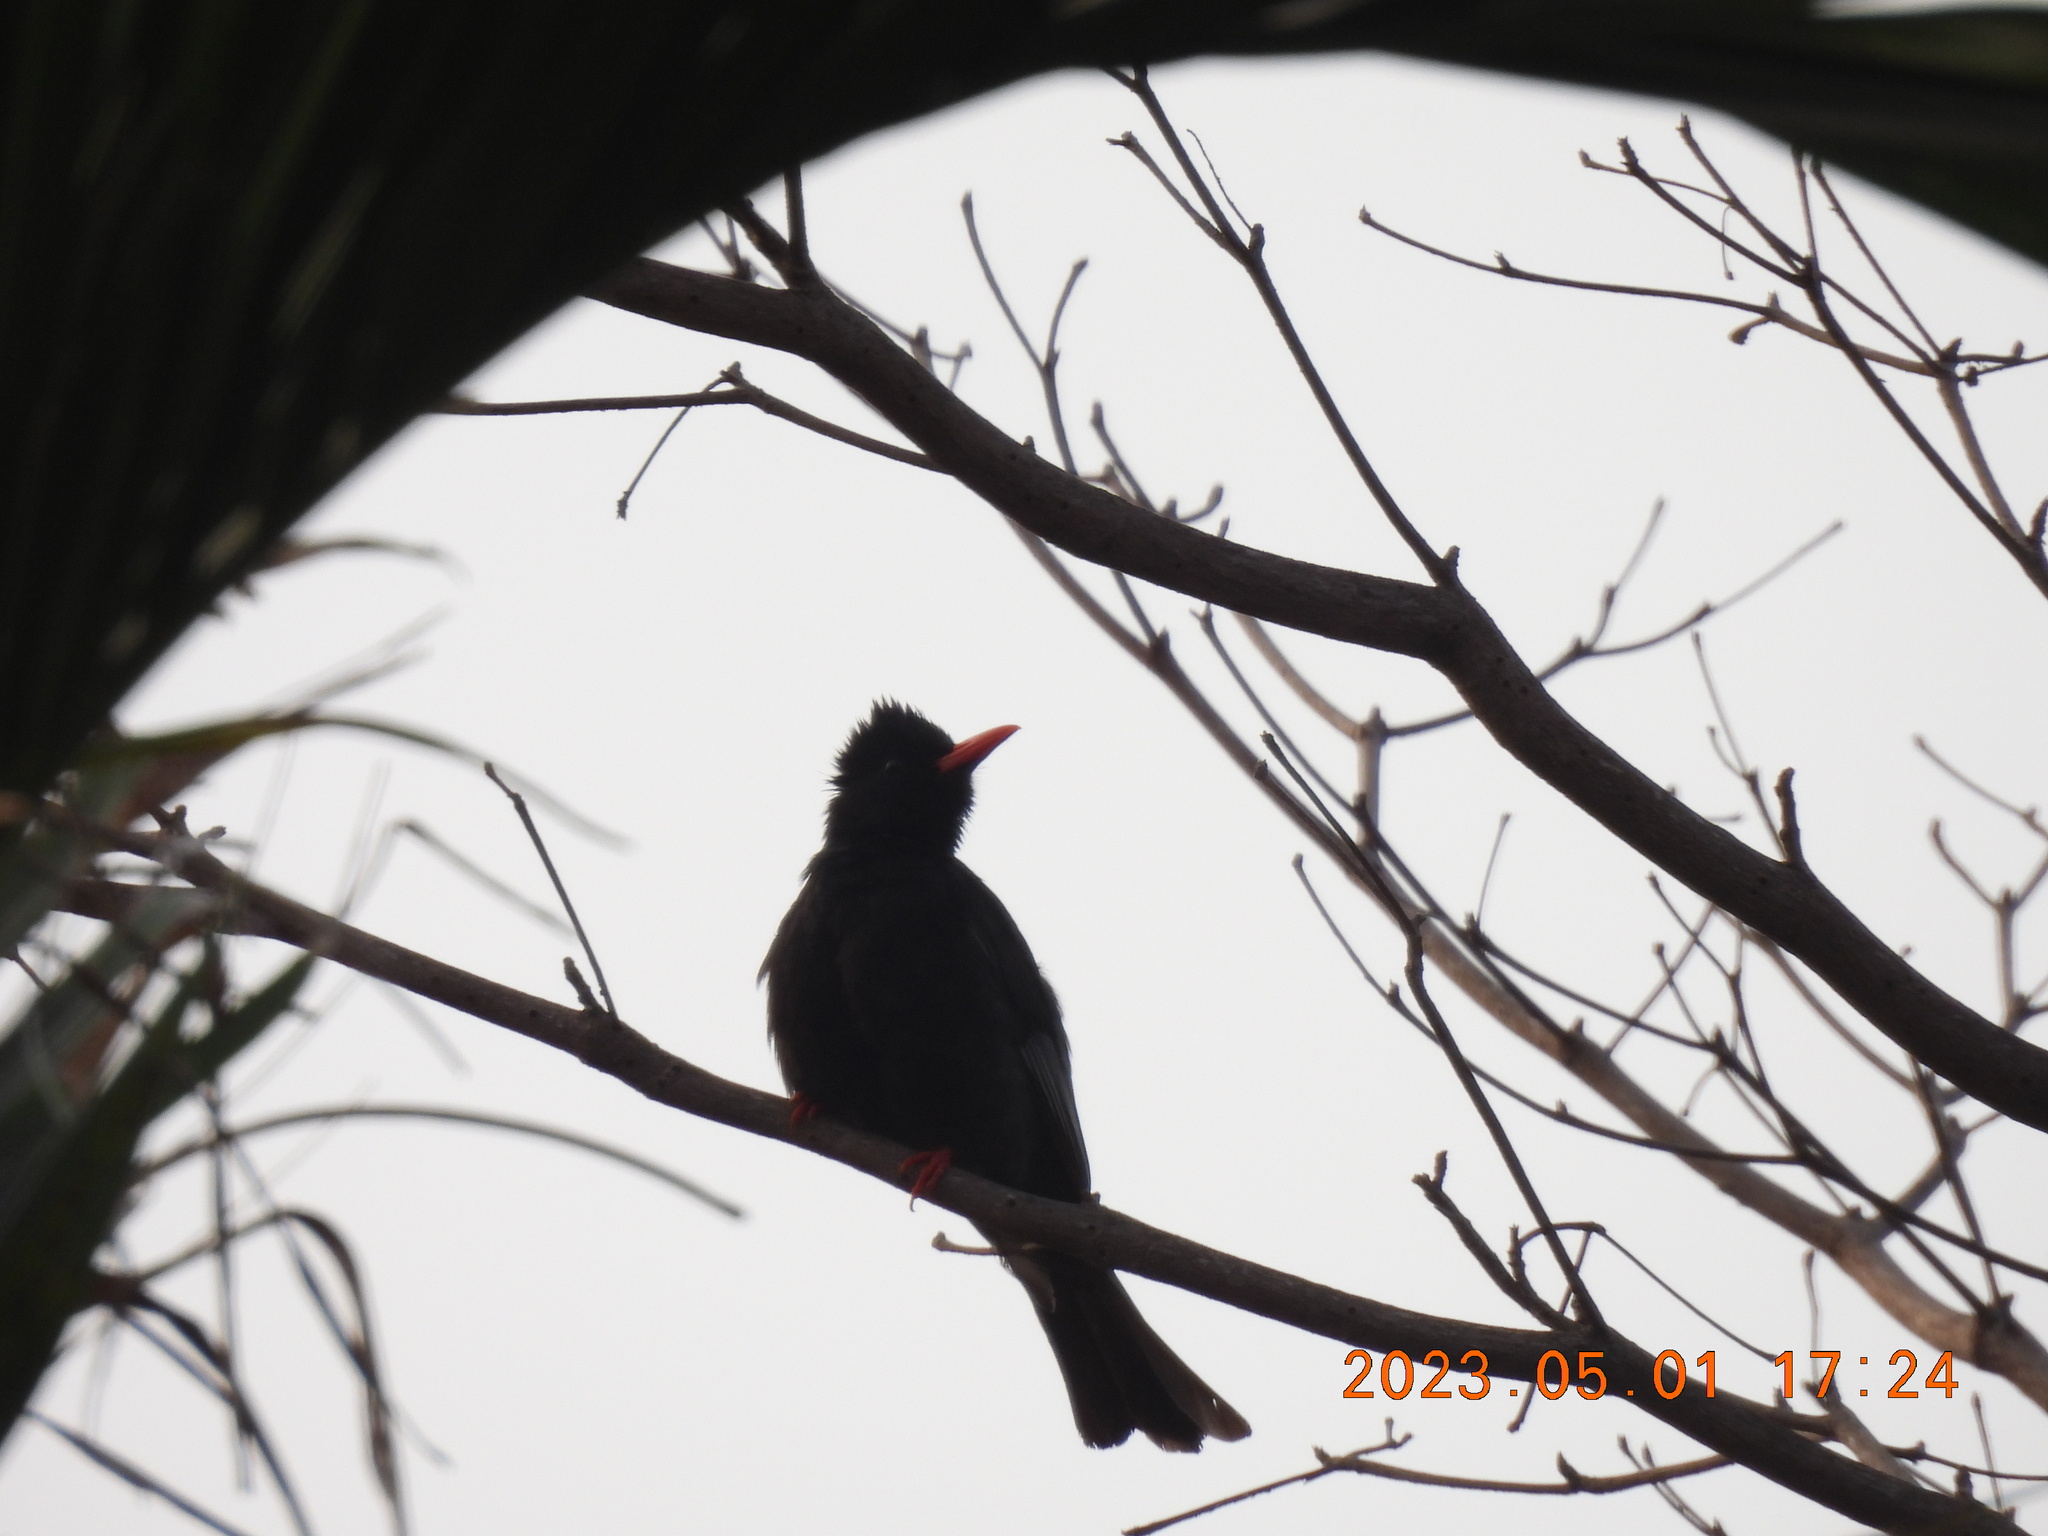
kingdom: Animalia
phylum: Chordata
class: Aves
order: Passeriformes
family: Pycnonotidae
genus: Hypsipetes
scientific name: Hypsipetes leucocephalus
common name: Black bulbul
